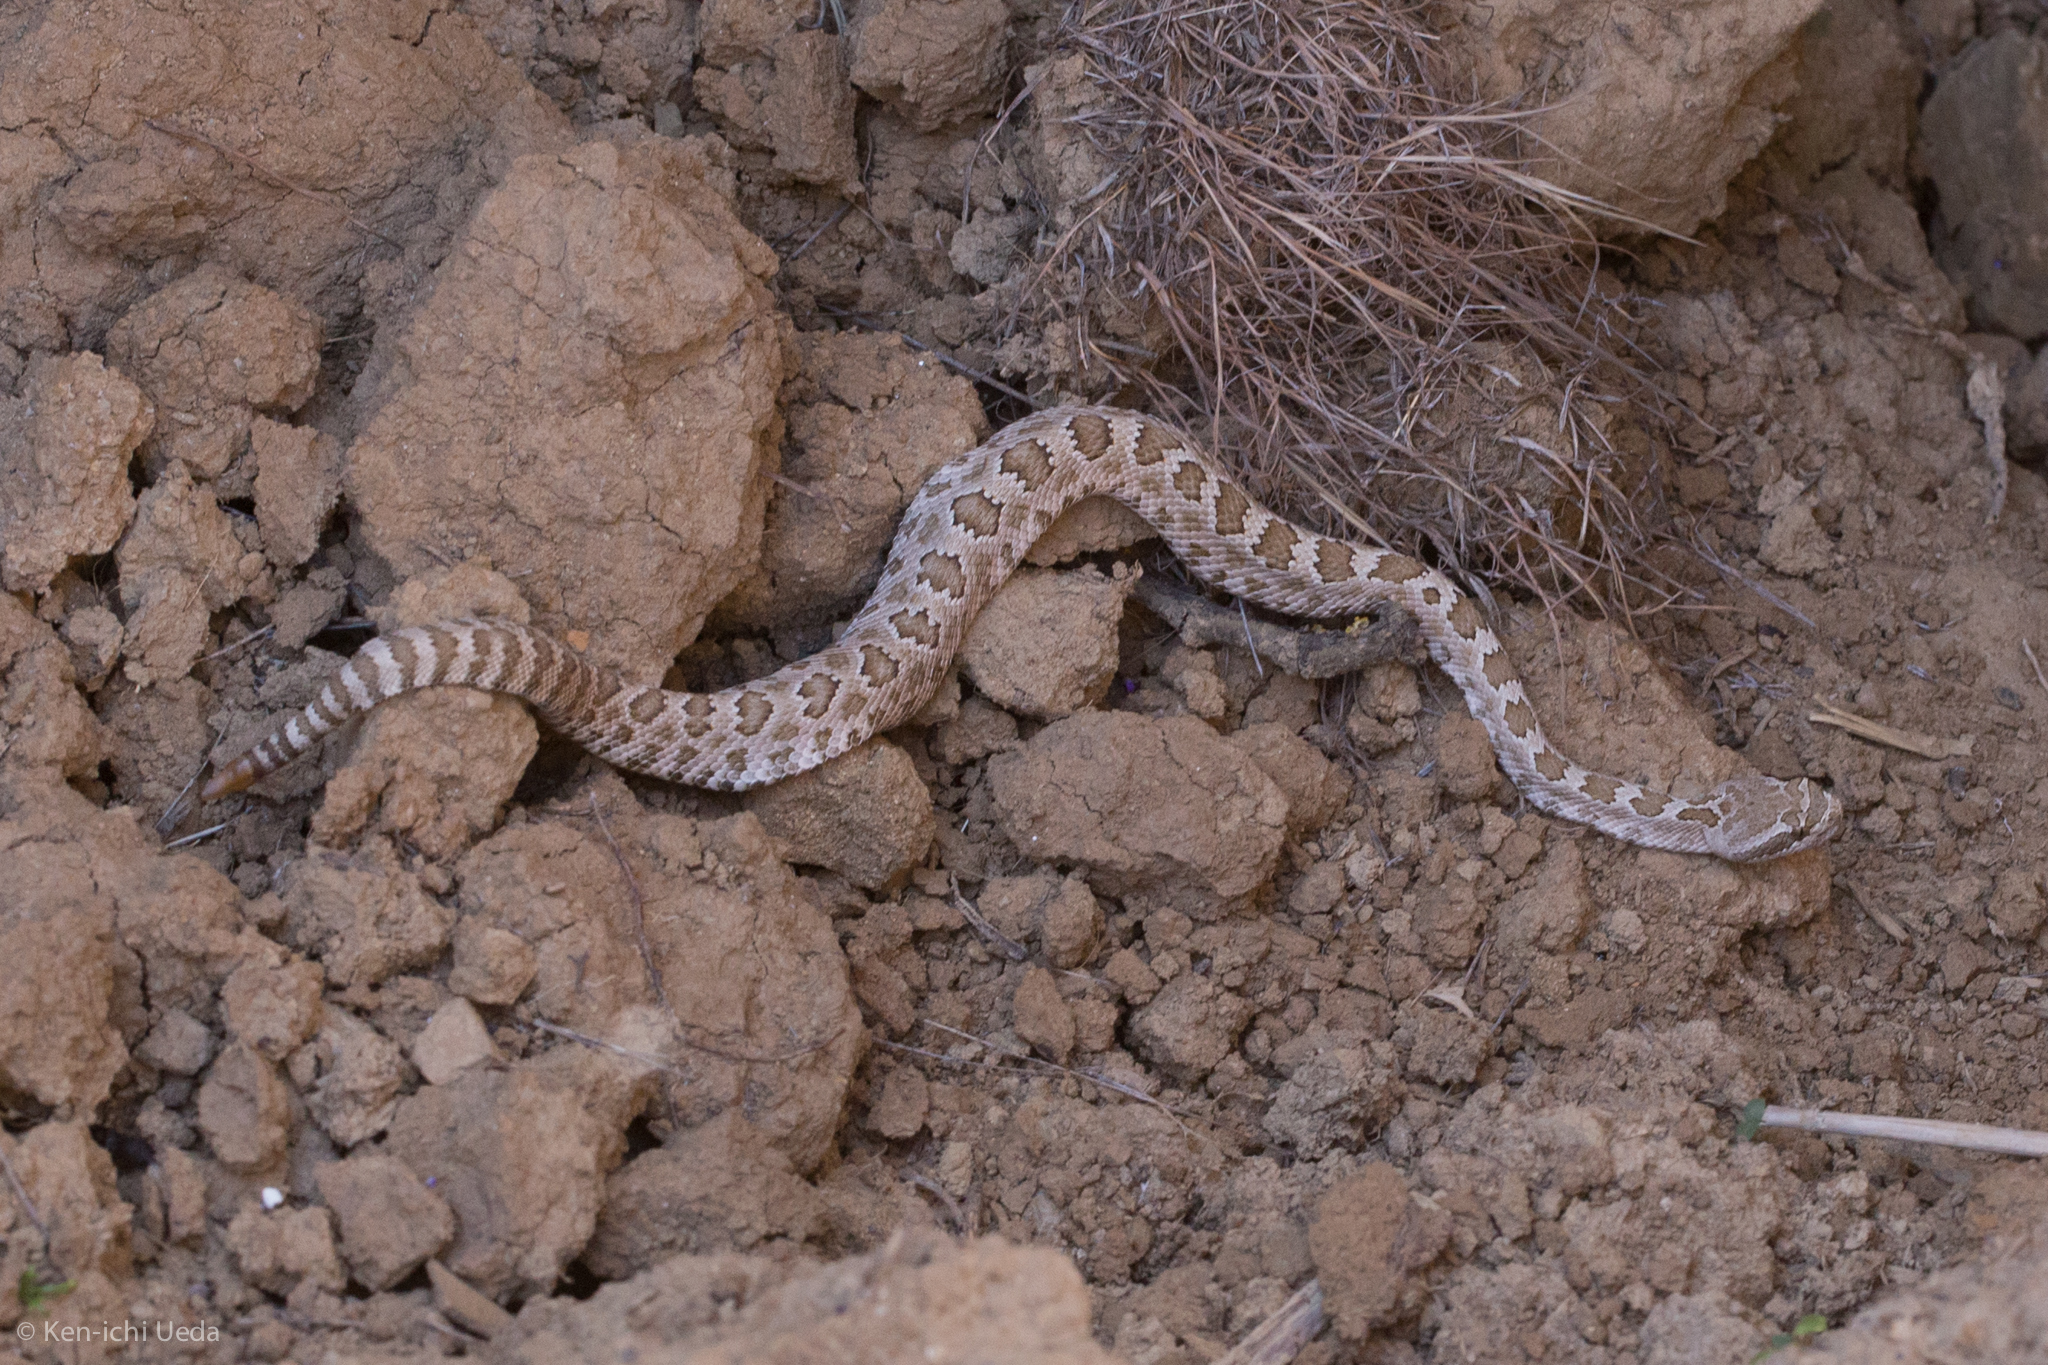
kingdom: Animalia
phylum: Chordata
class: Squamata
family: Viperidae
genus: Crotalus
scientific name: Crotalus oreganus
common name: Abyssus
